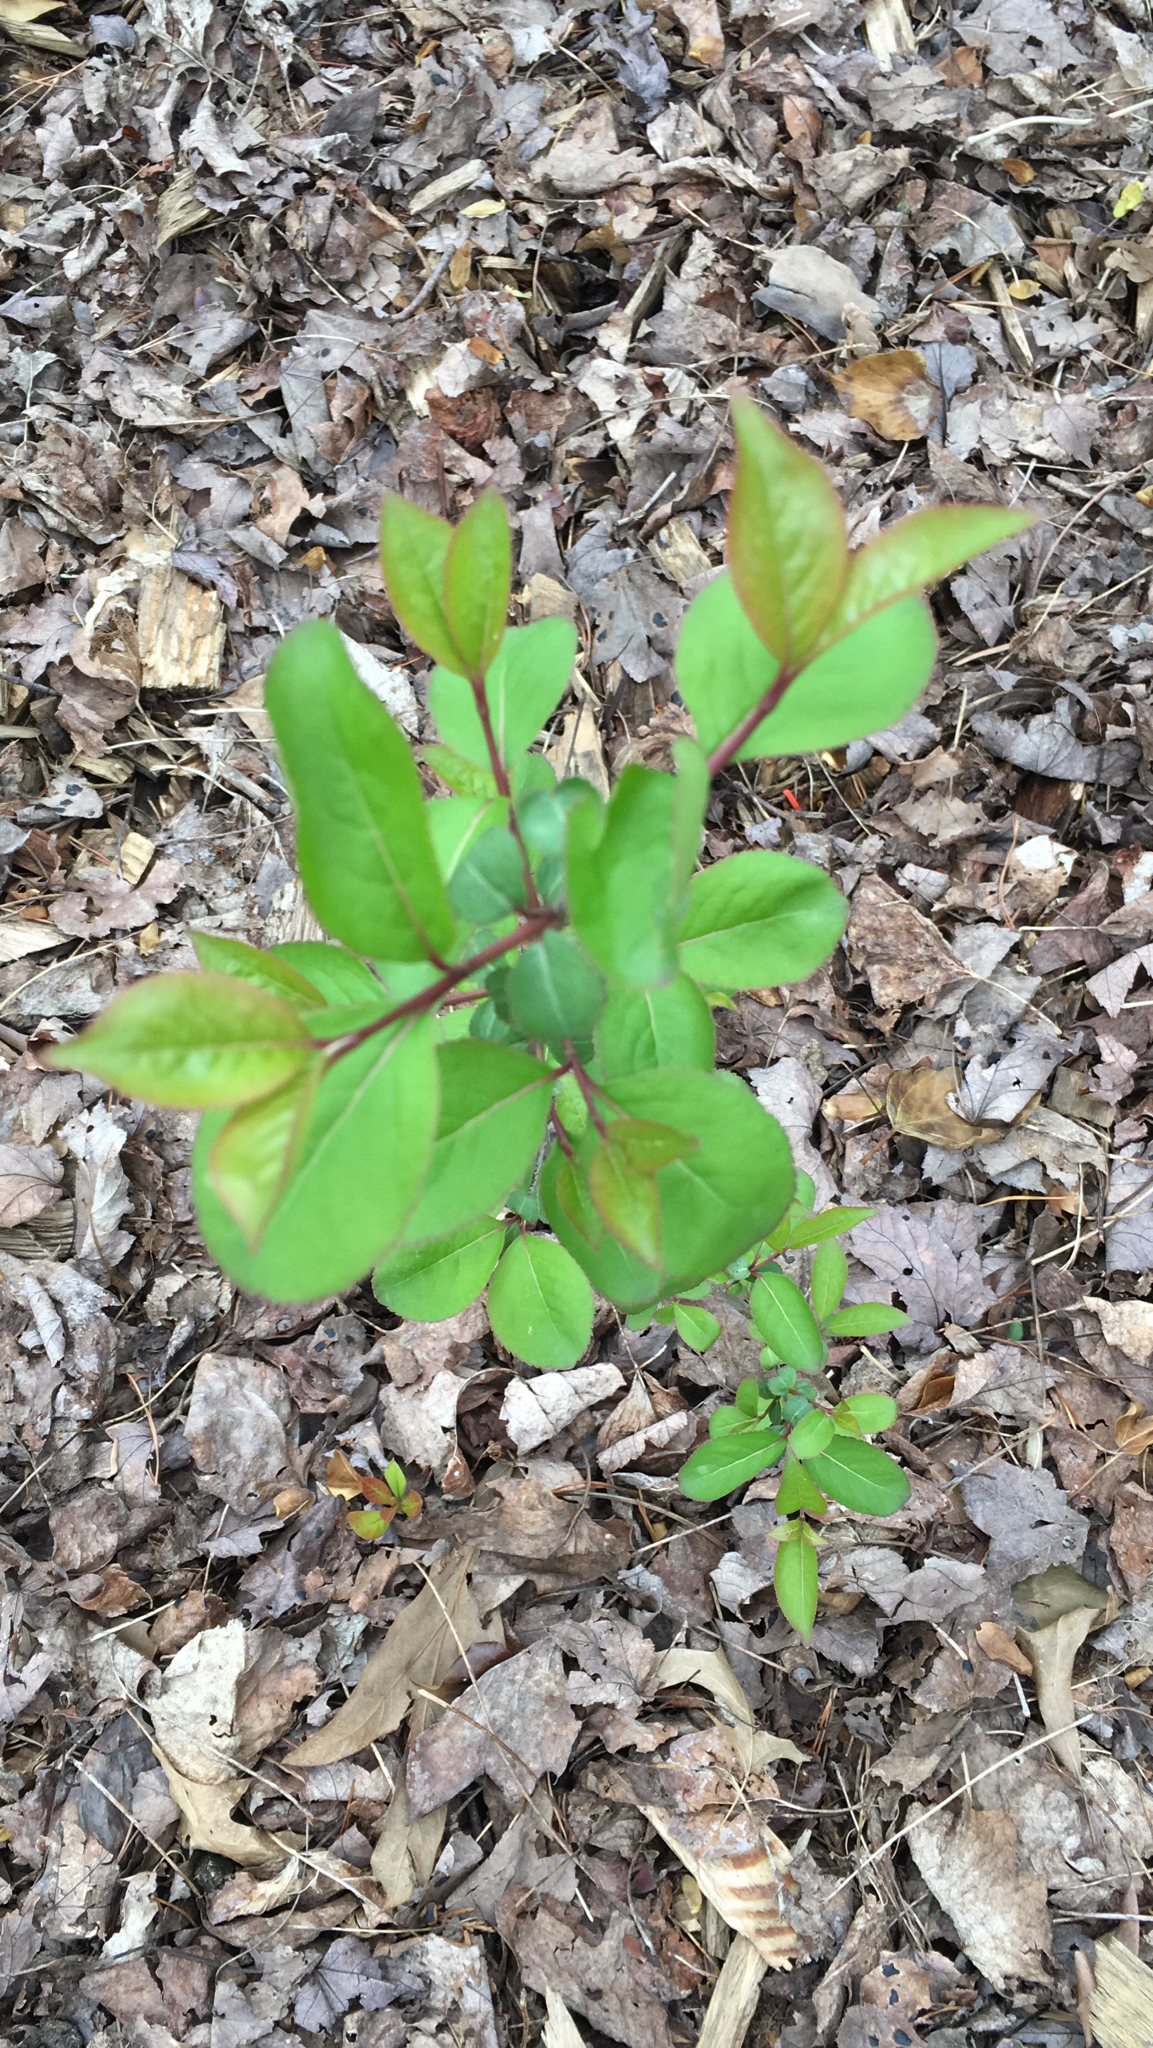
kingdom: Plantae
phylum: Tracheophyta
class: Magnoliopsida
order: Dipsacales
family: Viburnaceae
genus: Viburnum
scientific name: Viburnum prunifolium
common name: Black haw
